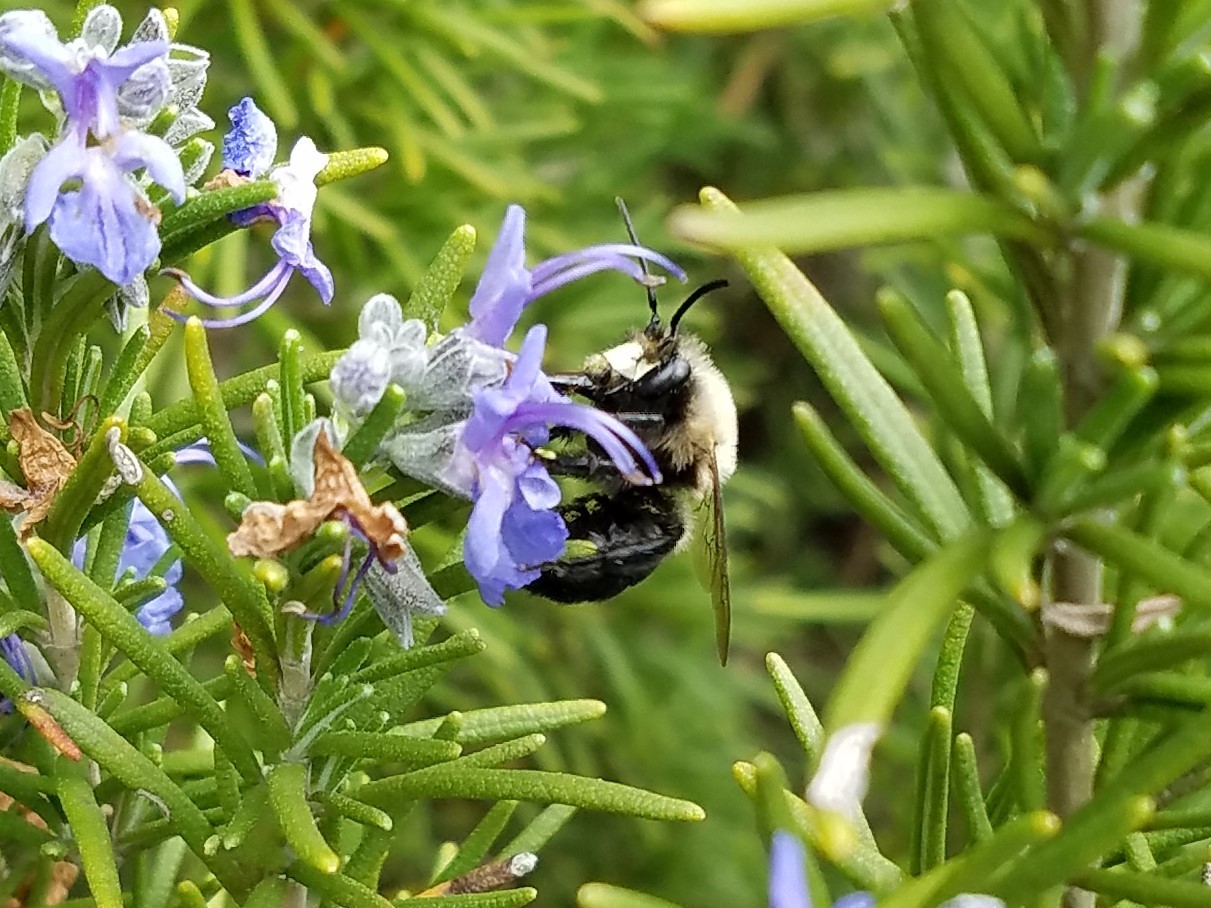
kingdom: Animalia
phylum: Arthropoda
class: Insecta
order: Hymenoptera
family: Apidae
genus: Habropoda
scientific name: Habropoda laboriosa
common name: Southeastern blueberry bee
